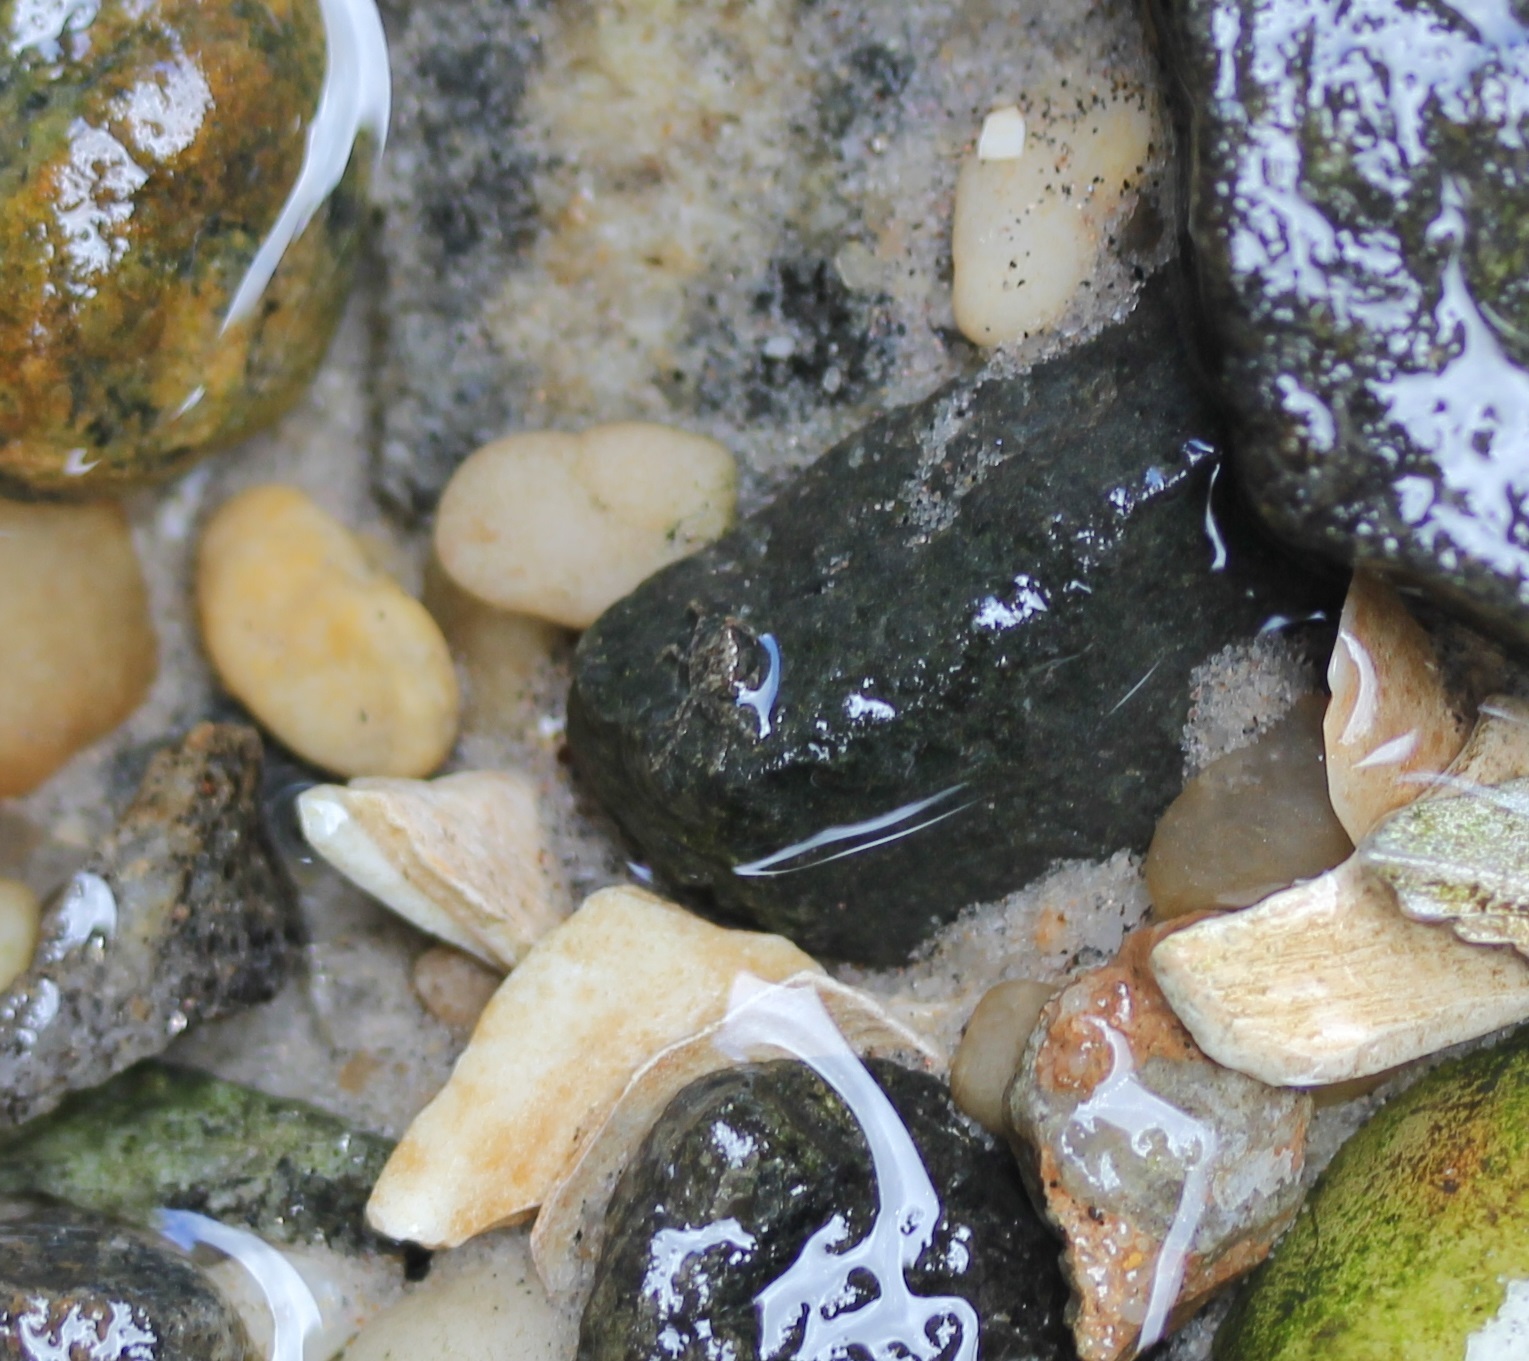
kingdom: Animalia
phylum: Arthropoda
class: Malacostraca
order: Decapoda
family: Varunidae
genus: Hemigrapsus
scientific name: Hemigrapsus sanguineus
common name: Asian shore crab
